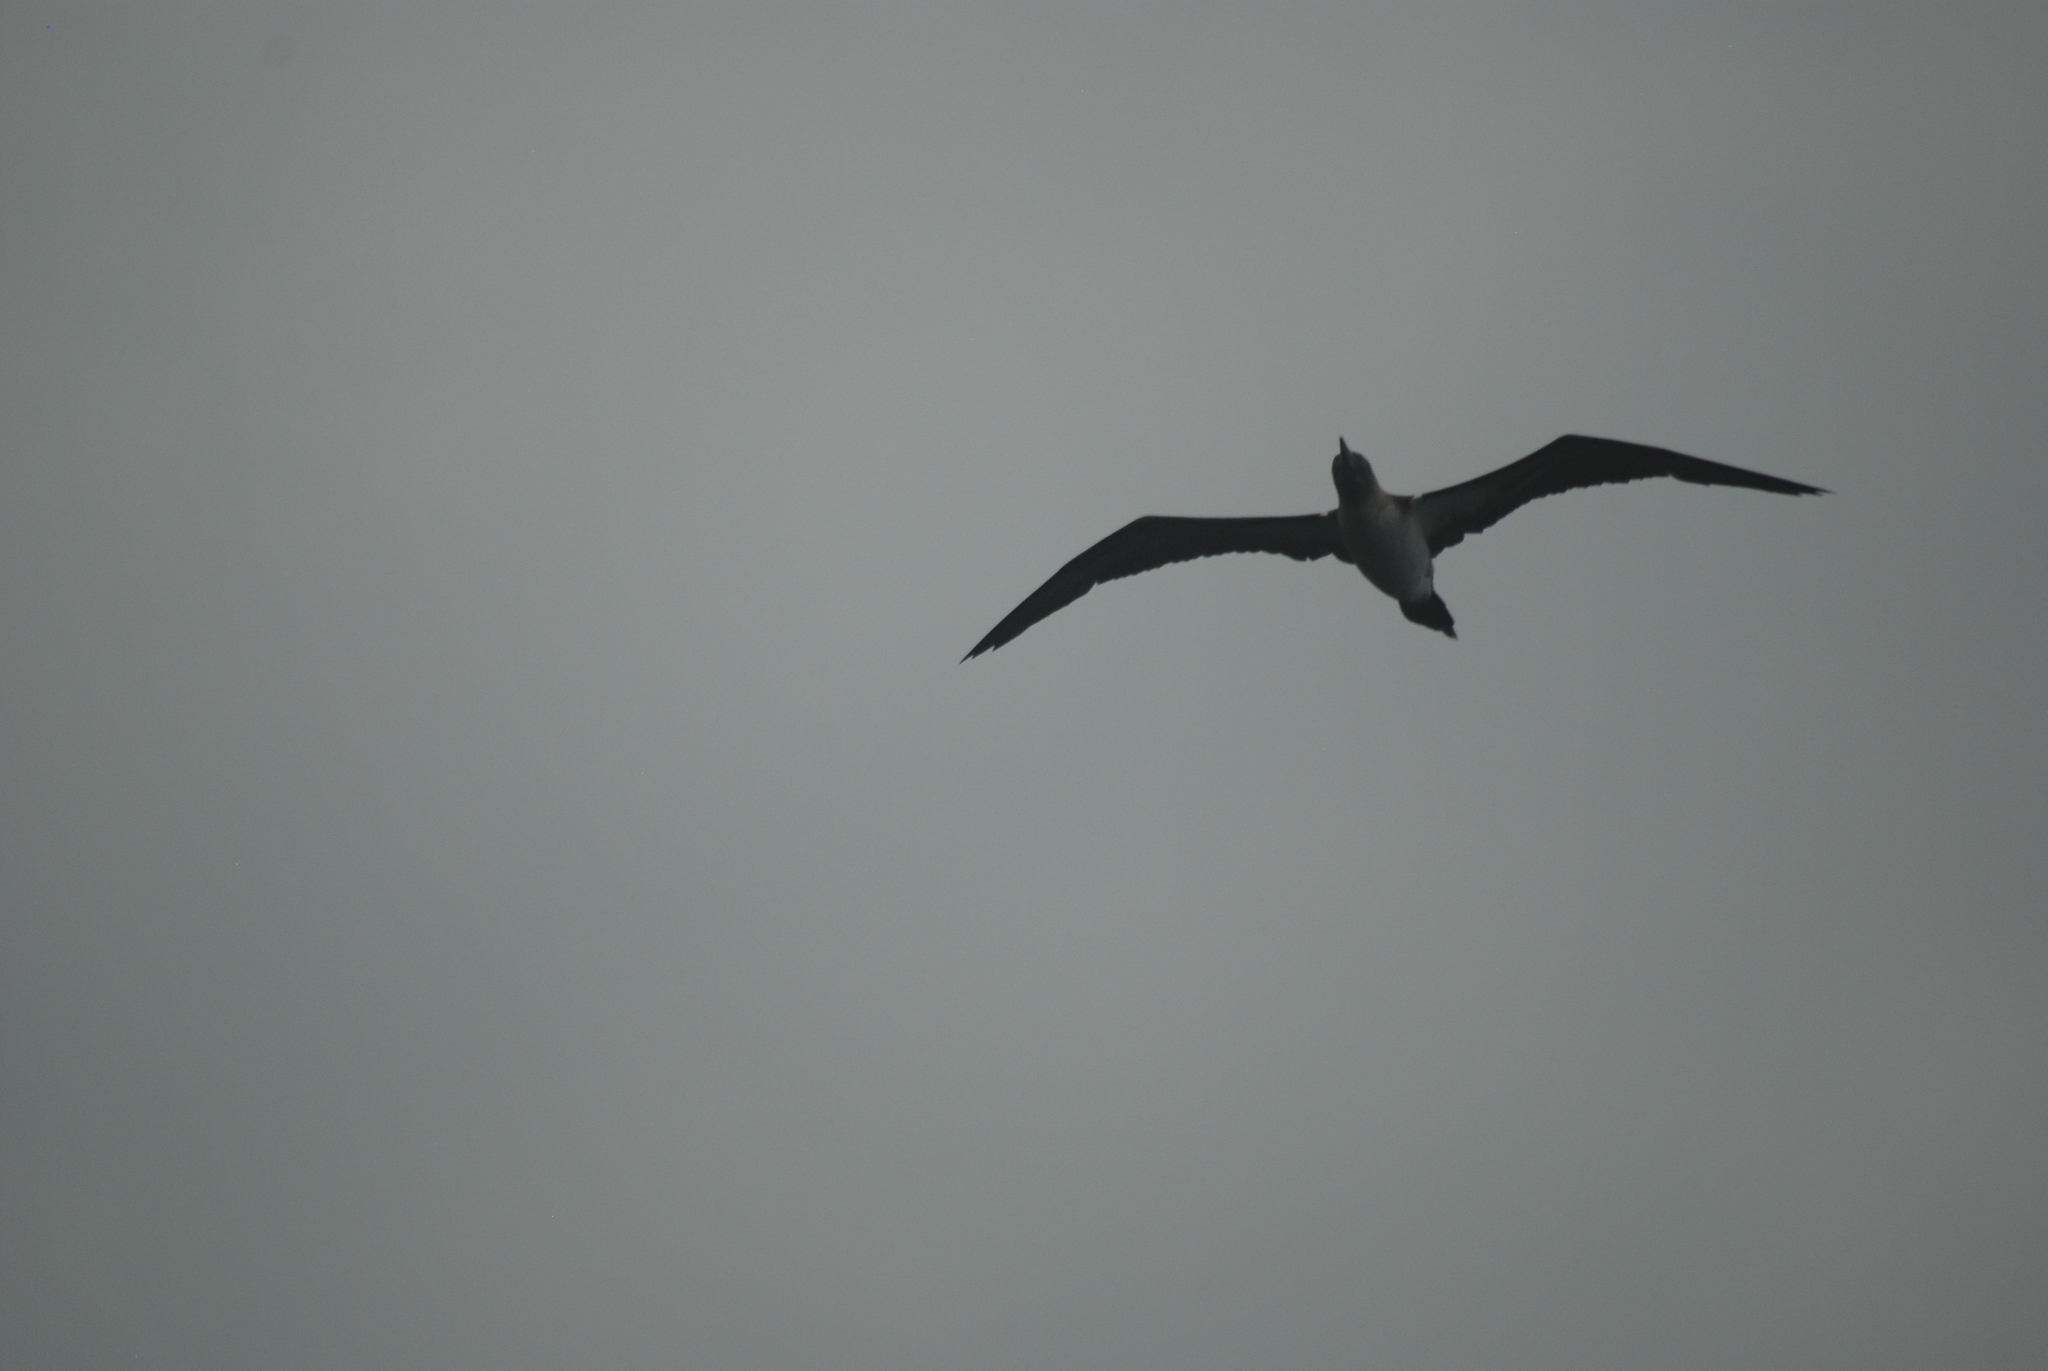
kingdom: Animalia
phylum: Chordata
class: Aves
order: Suliformes
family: Sulidae
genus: Sula
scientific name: Sula nebouxii
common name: Blue-footed booby
